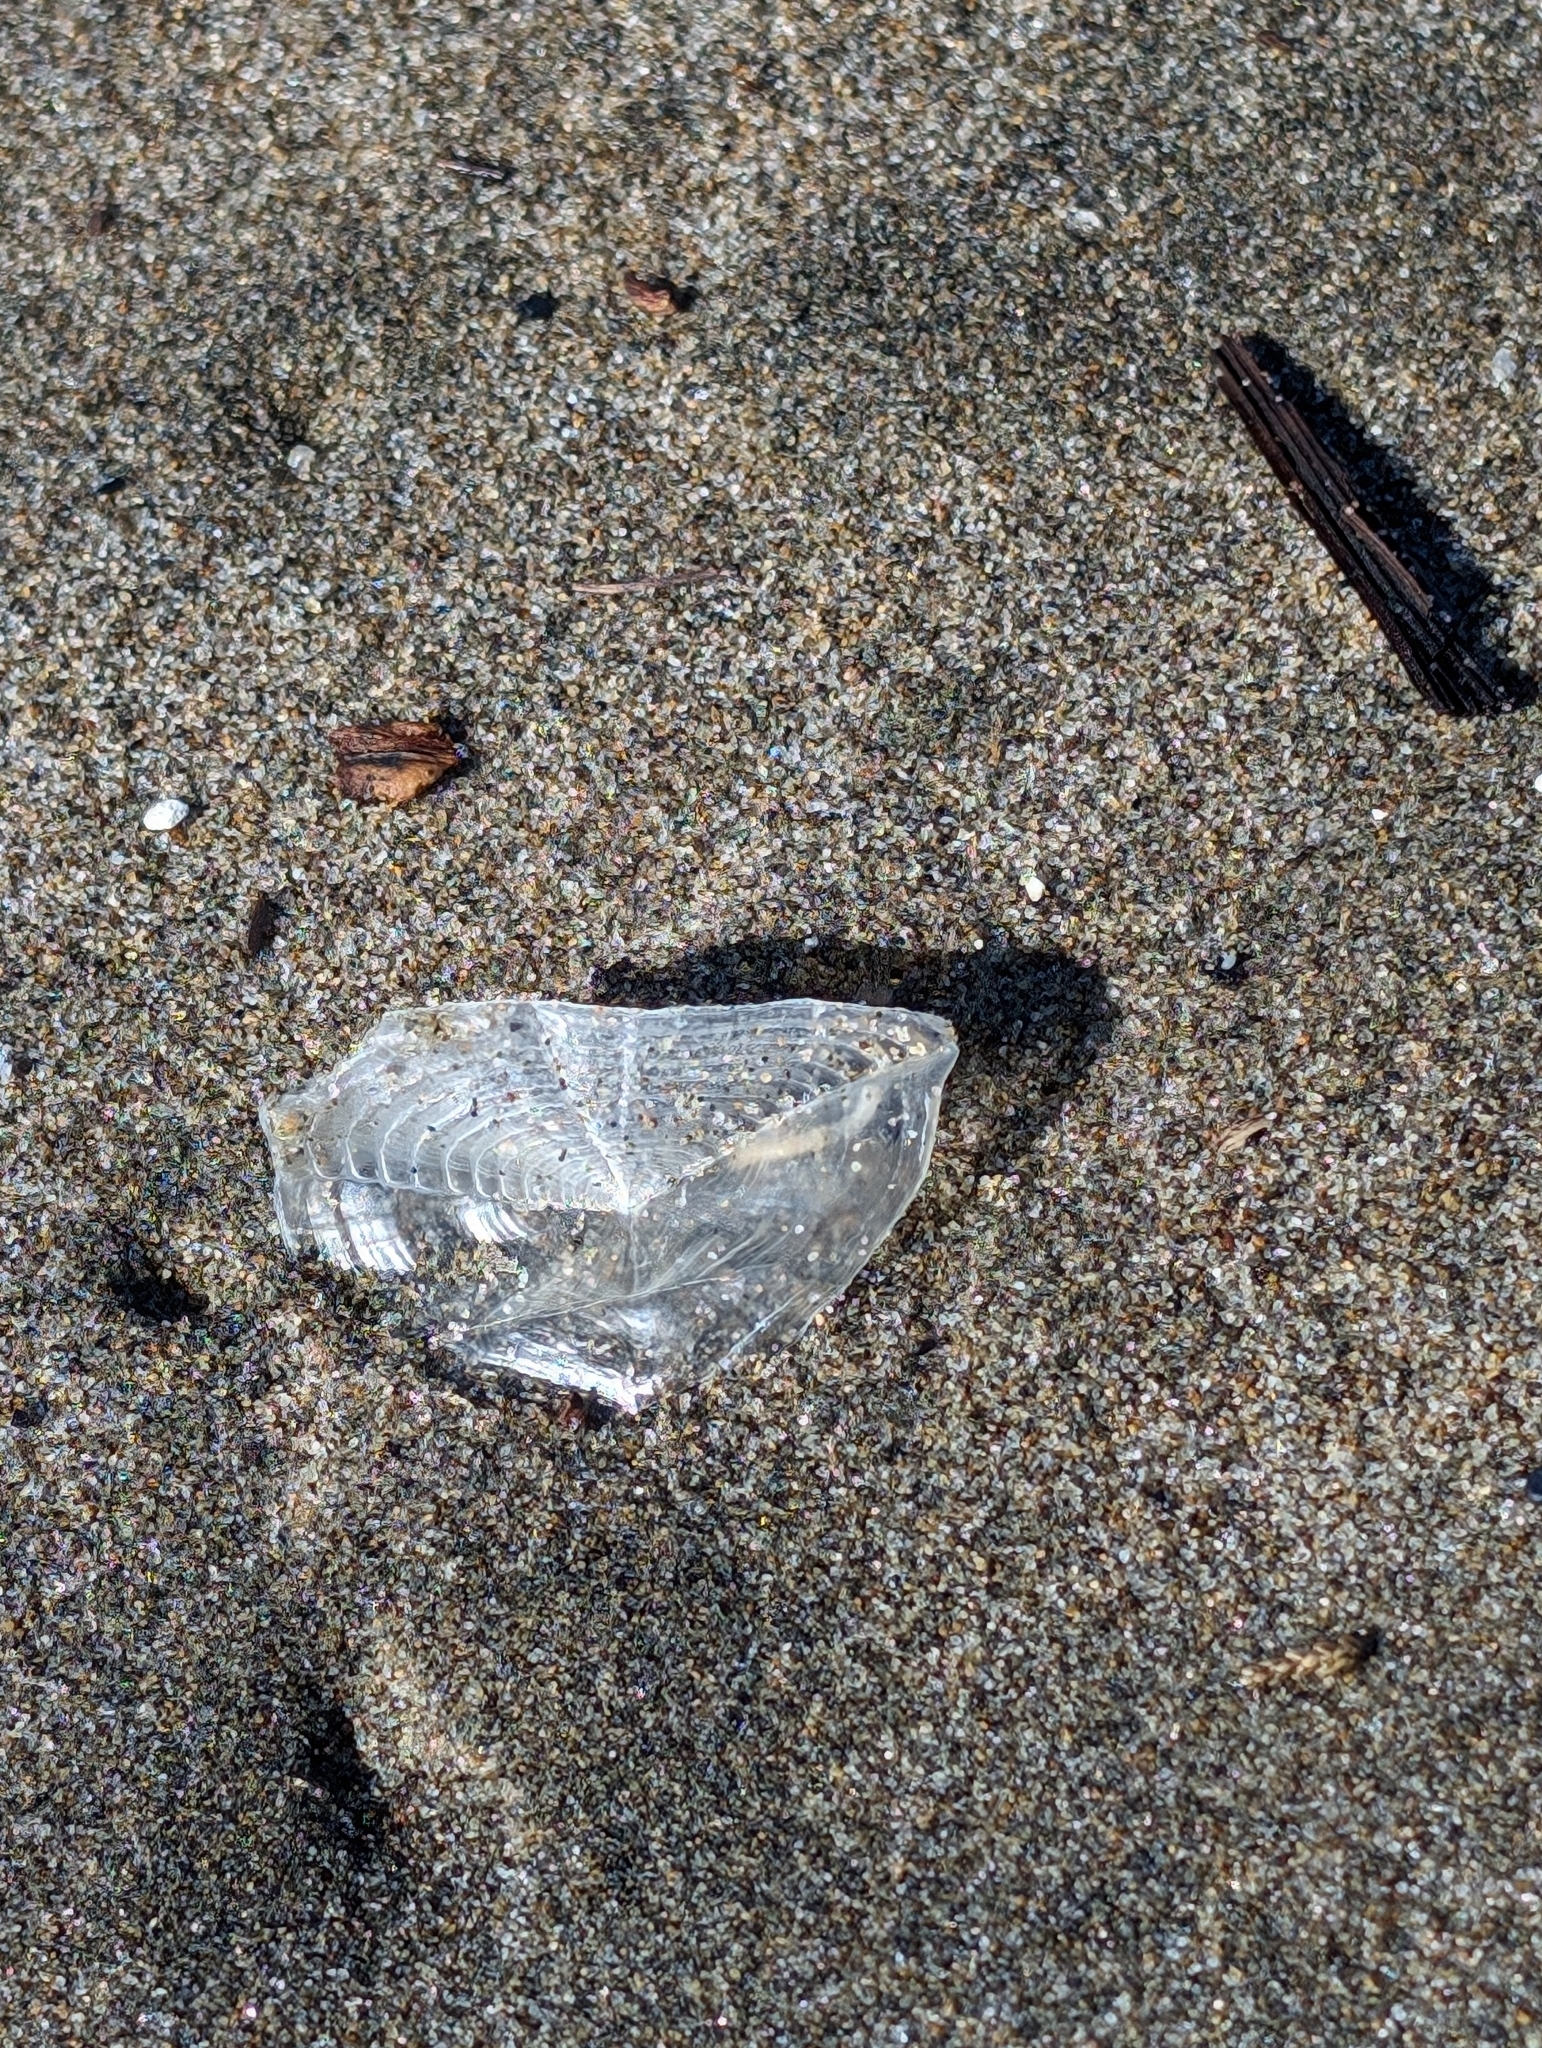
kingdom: Animalia
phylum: Cnidaria
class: Hydrozoa
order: Anthoathecata
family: Porpitidae
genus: Velella
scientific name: Velella velella
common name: By-the-wind-sailor
